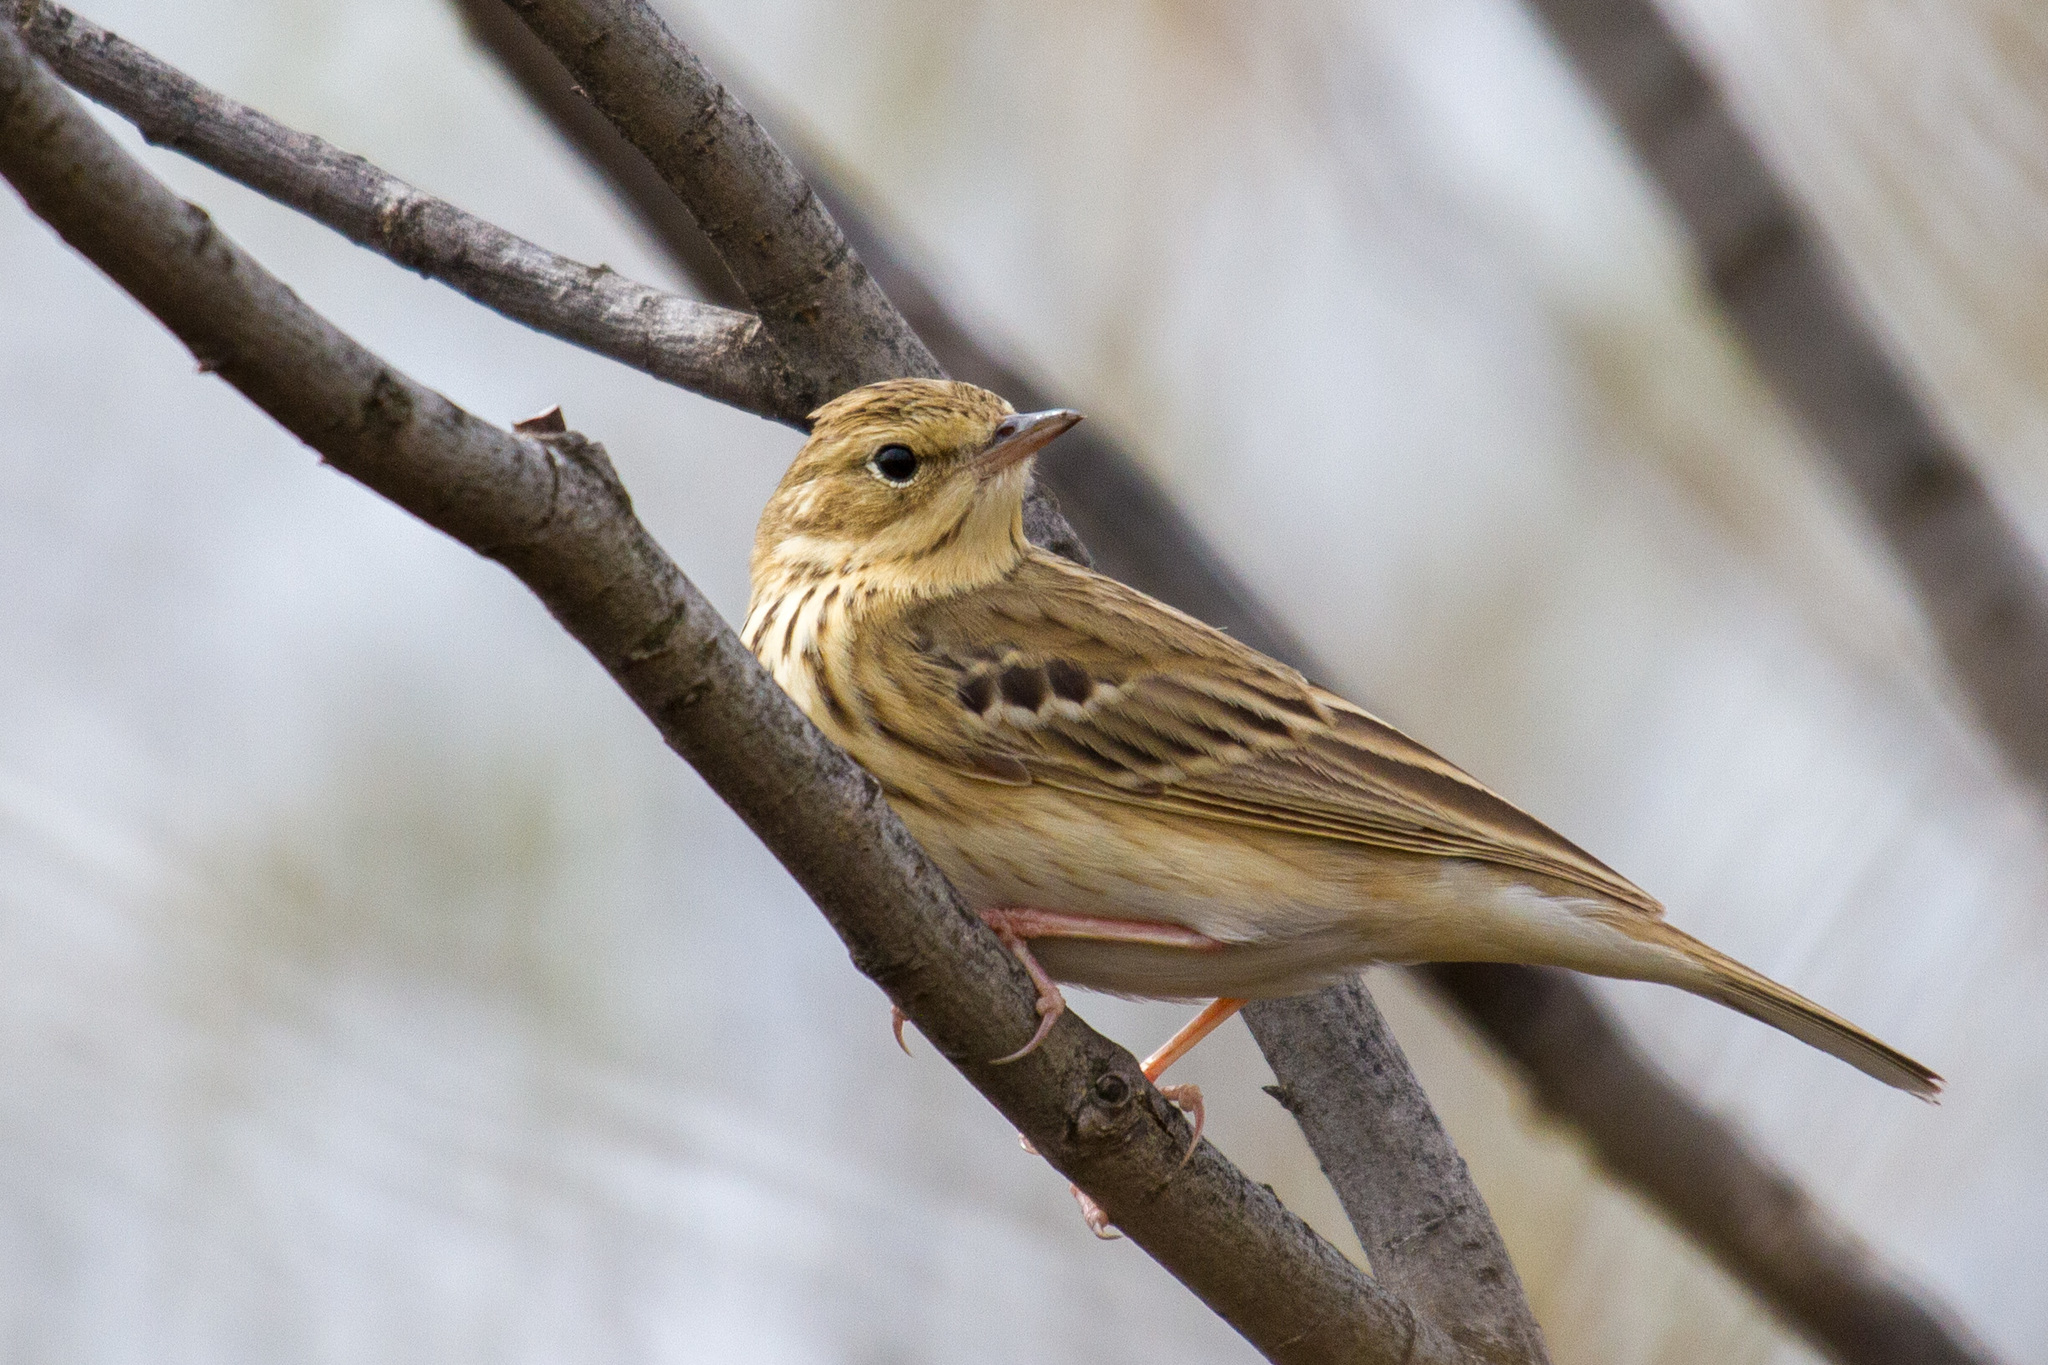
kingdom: Animalia
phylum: Chordata
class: Aves
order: Passeriformes
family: Motacillidae
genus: Anthus
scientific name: Anthus trivialis
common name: Tree pipit
